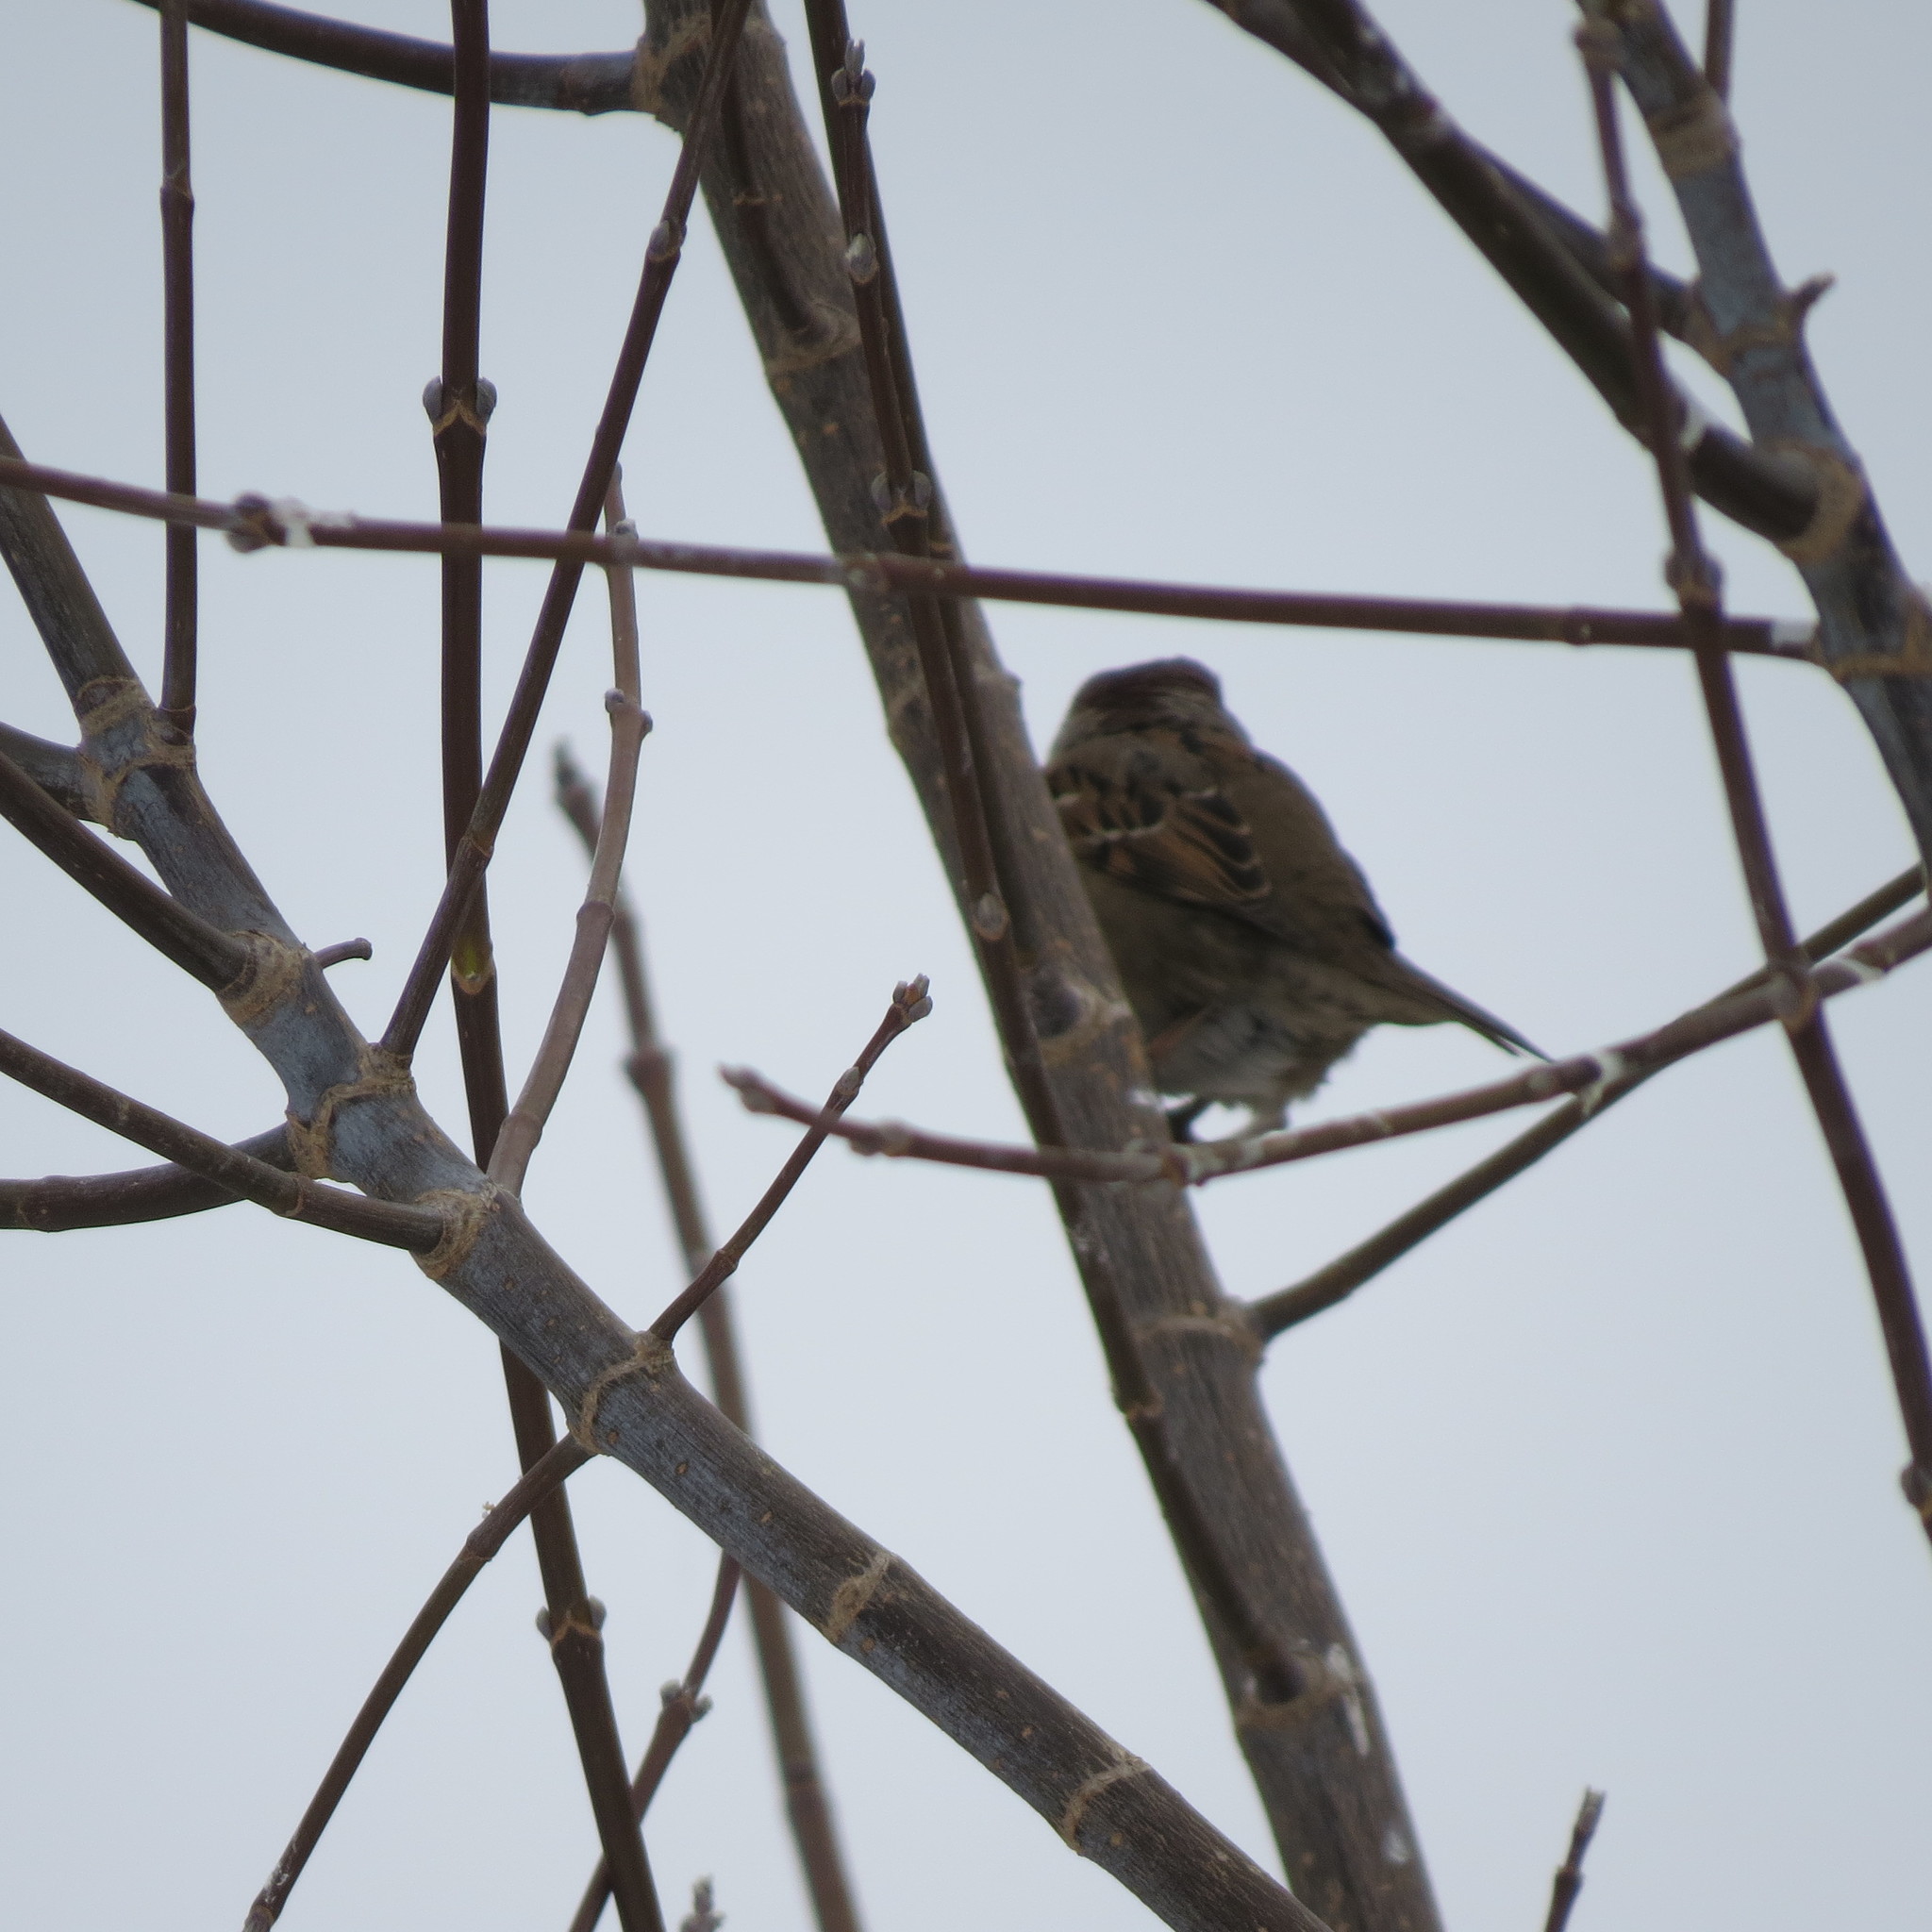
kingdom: Animalia
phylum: Chordata
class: Aves
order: Passeriformes
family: Passeridae
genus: Passer
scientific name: Passer montanus
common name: Eurasian tree sparrow
